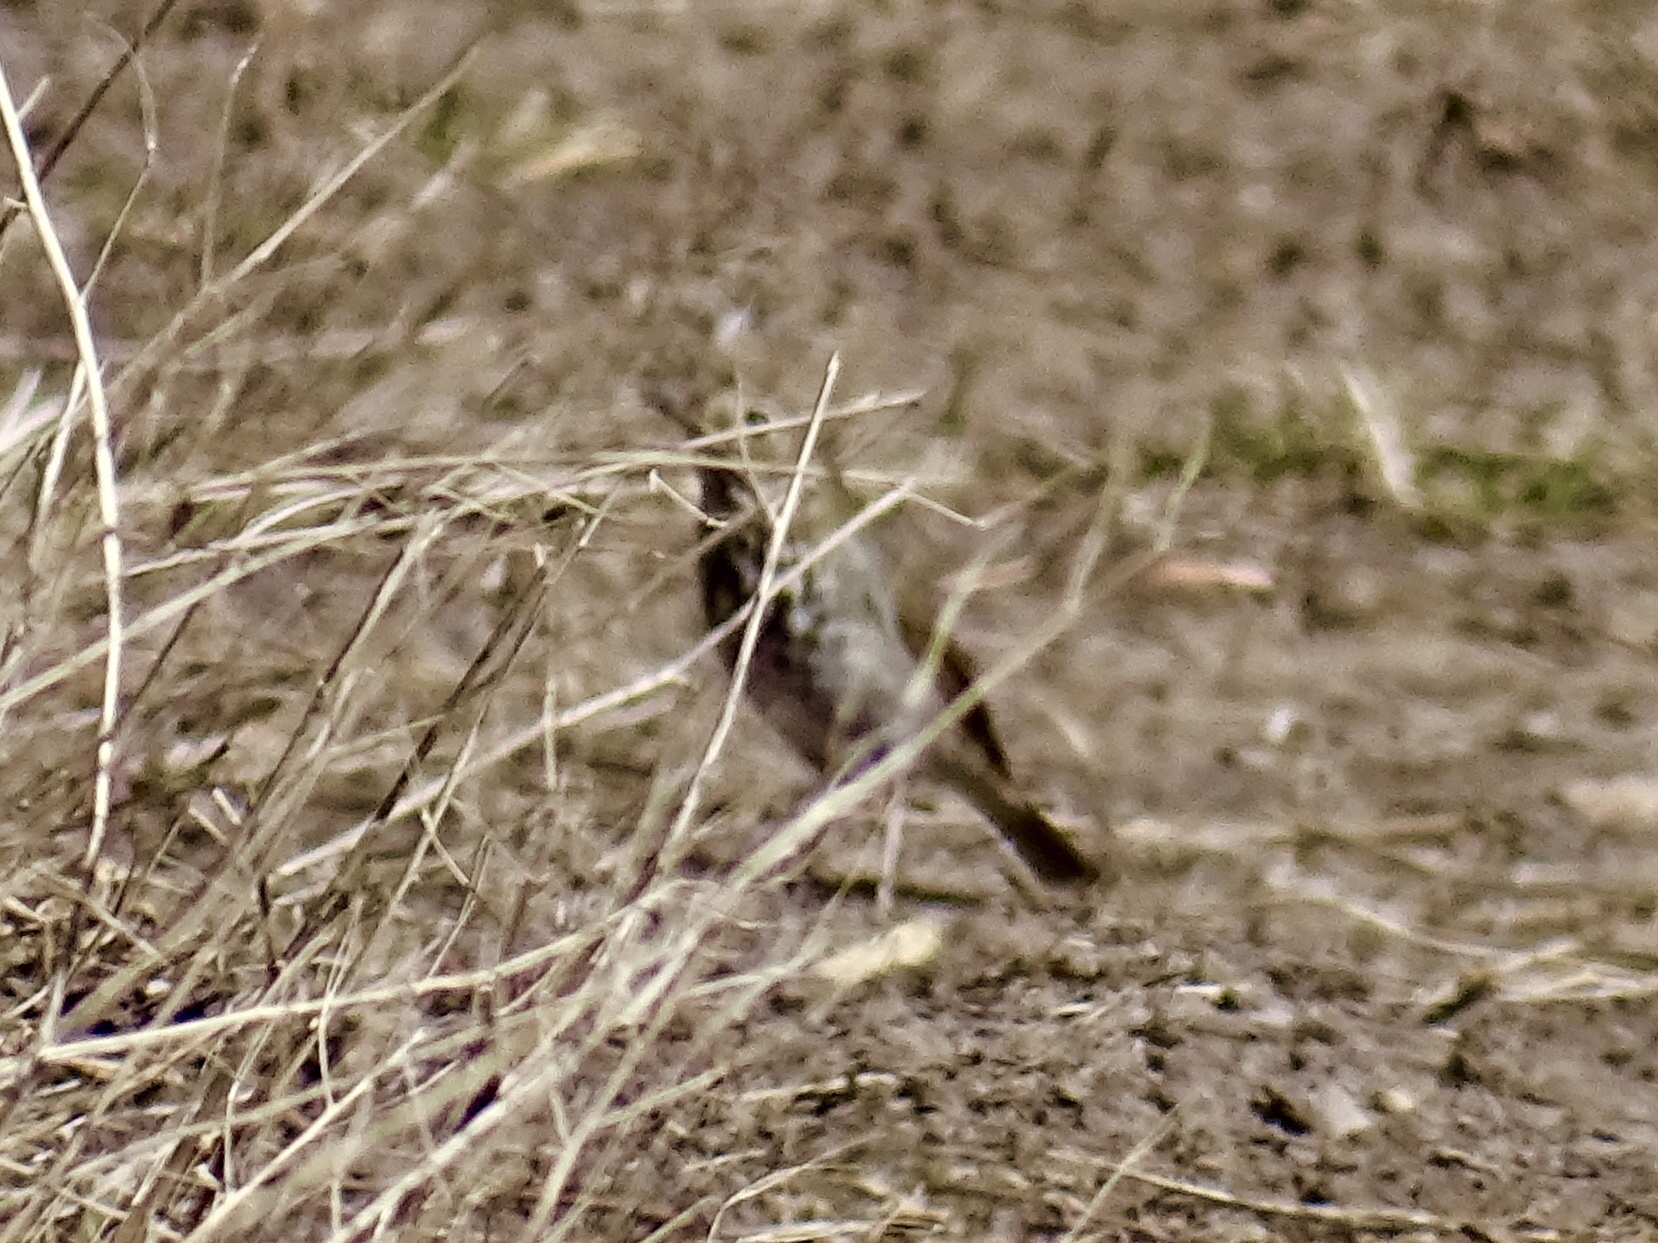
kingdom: Animalia
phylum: Chordata
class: Aves
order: Passeriformes
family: Turdidae
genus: Catharus
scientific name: Catharus guttatus
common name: Hermit thrush
